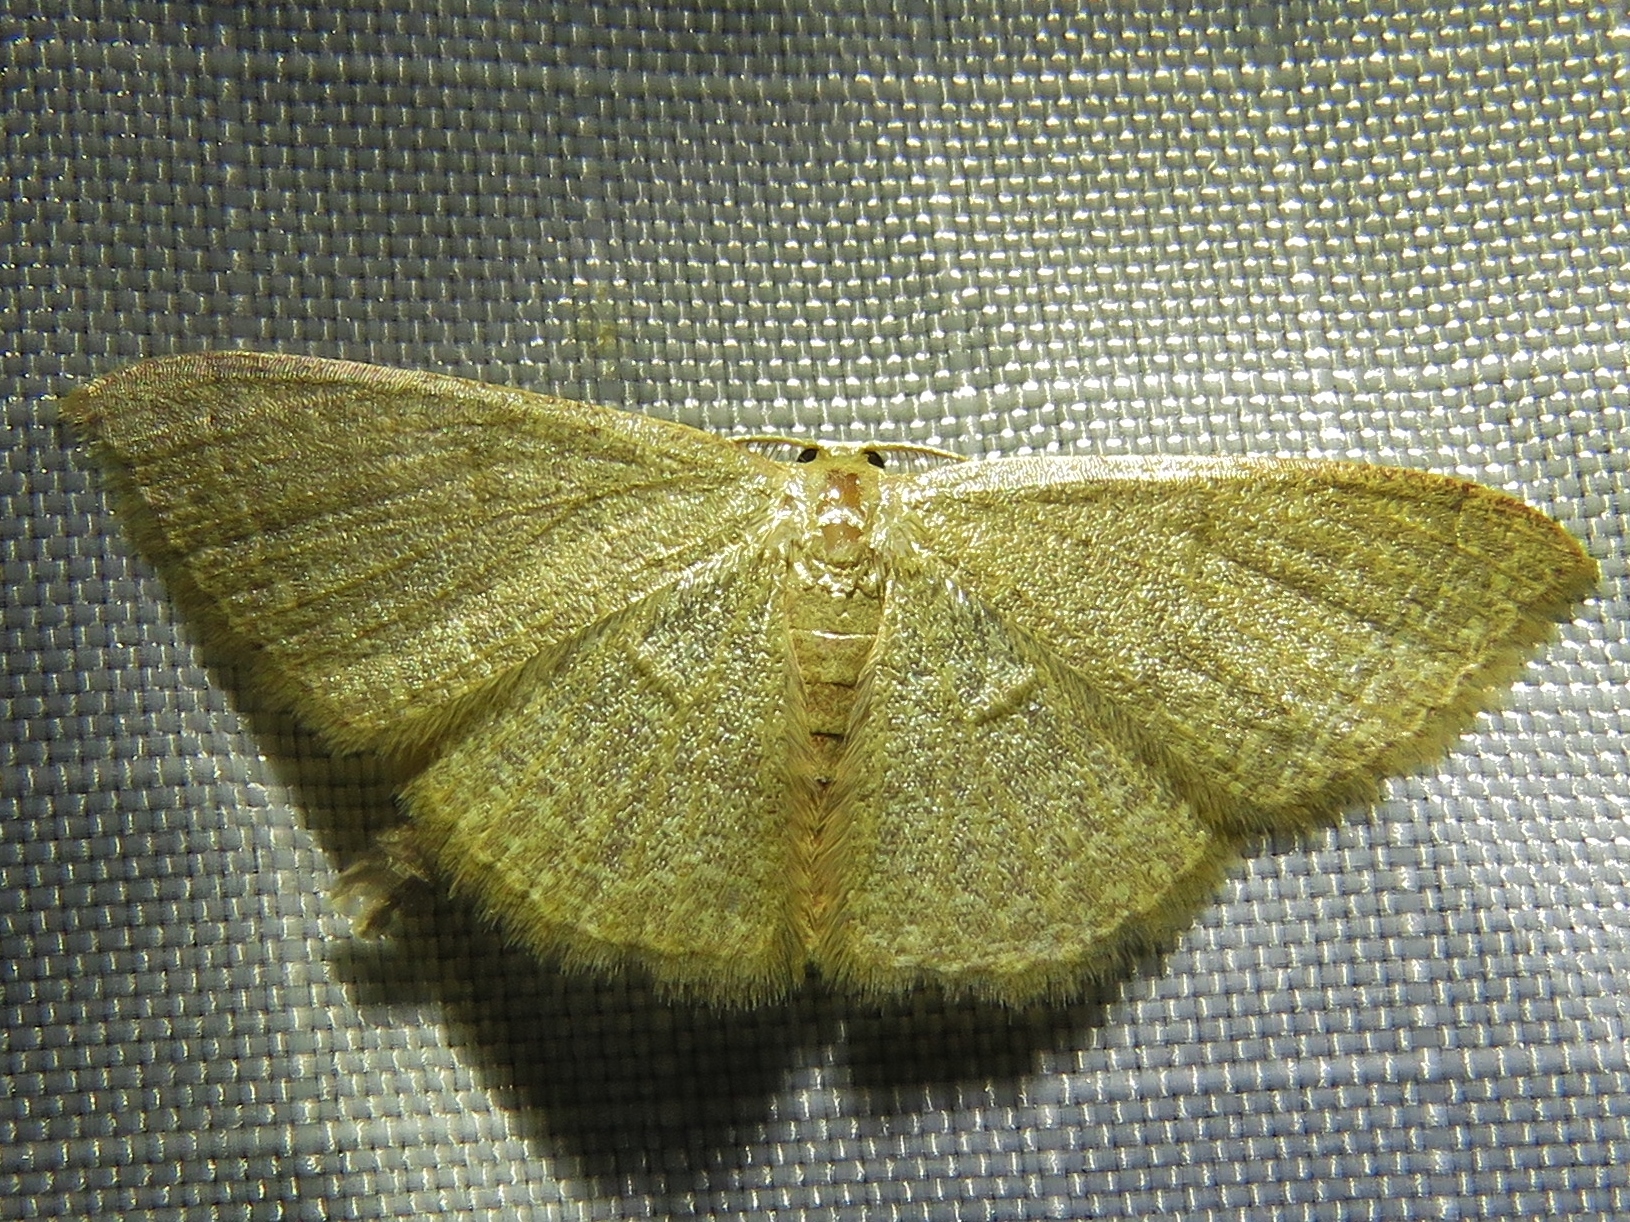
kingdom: Animalia
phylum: Arthropoda
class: Insecta
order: Lepidoptera
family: Geometridae
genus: Pleuroprucha
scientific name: Pleuroprucha insulsaria
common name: Common tan wave
